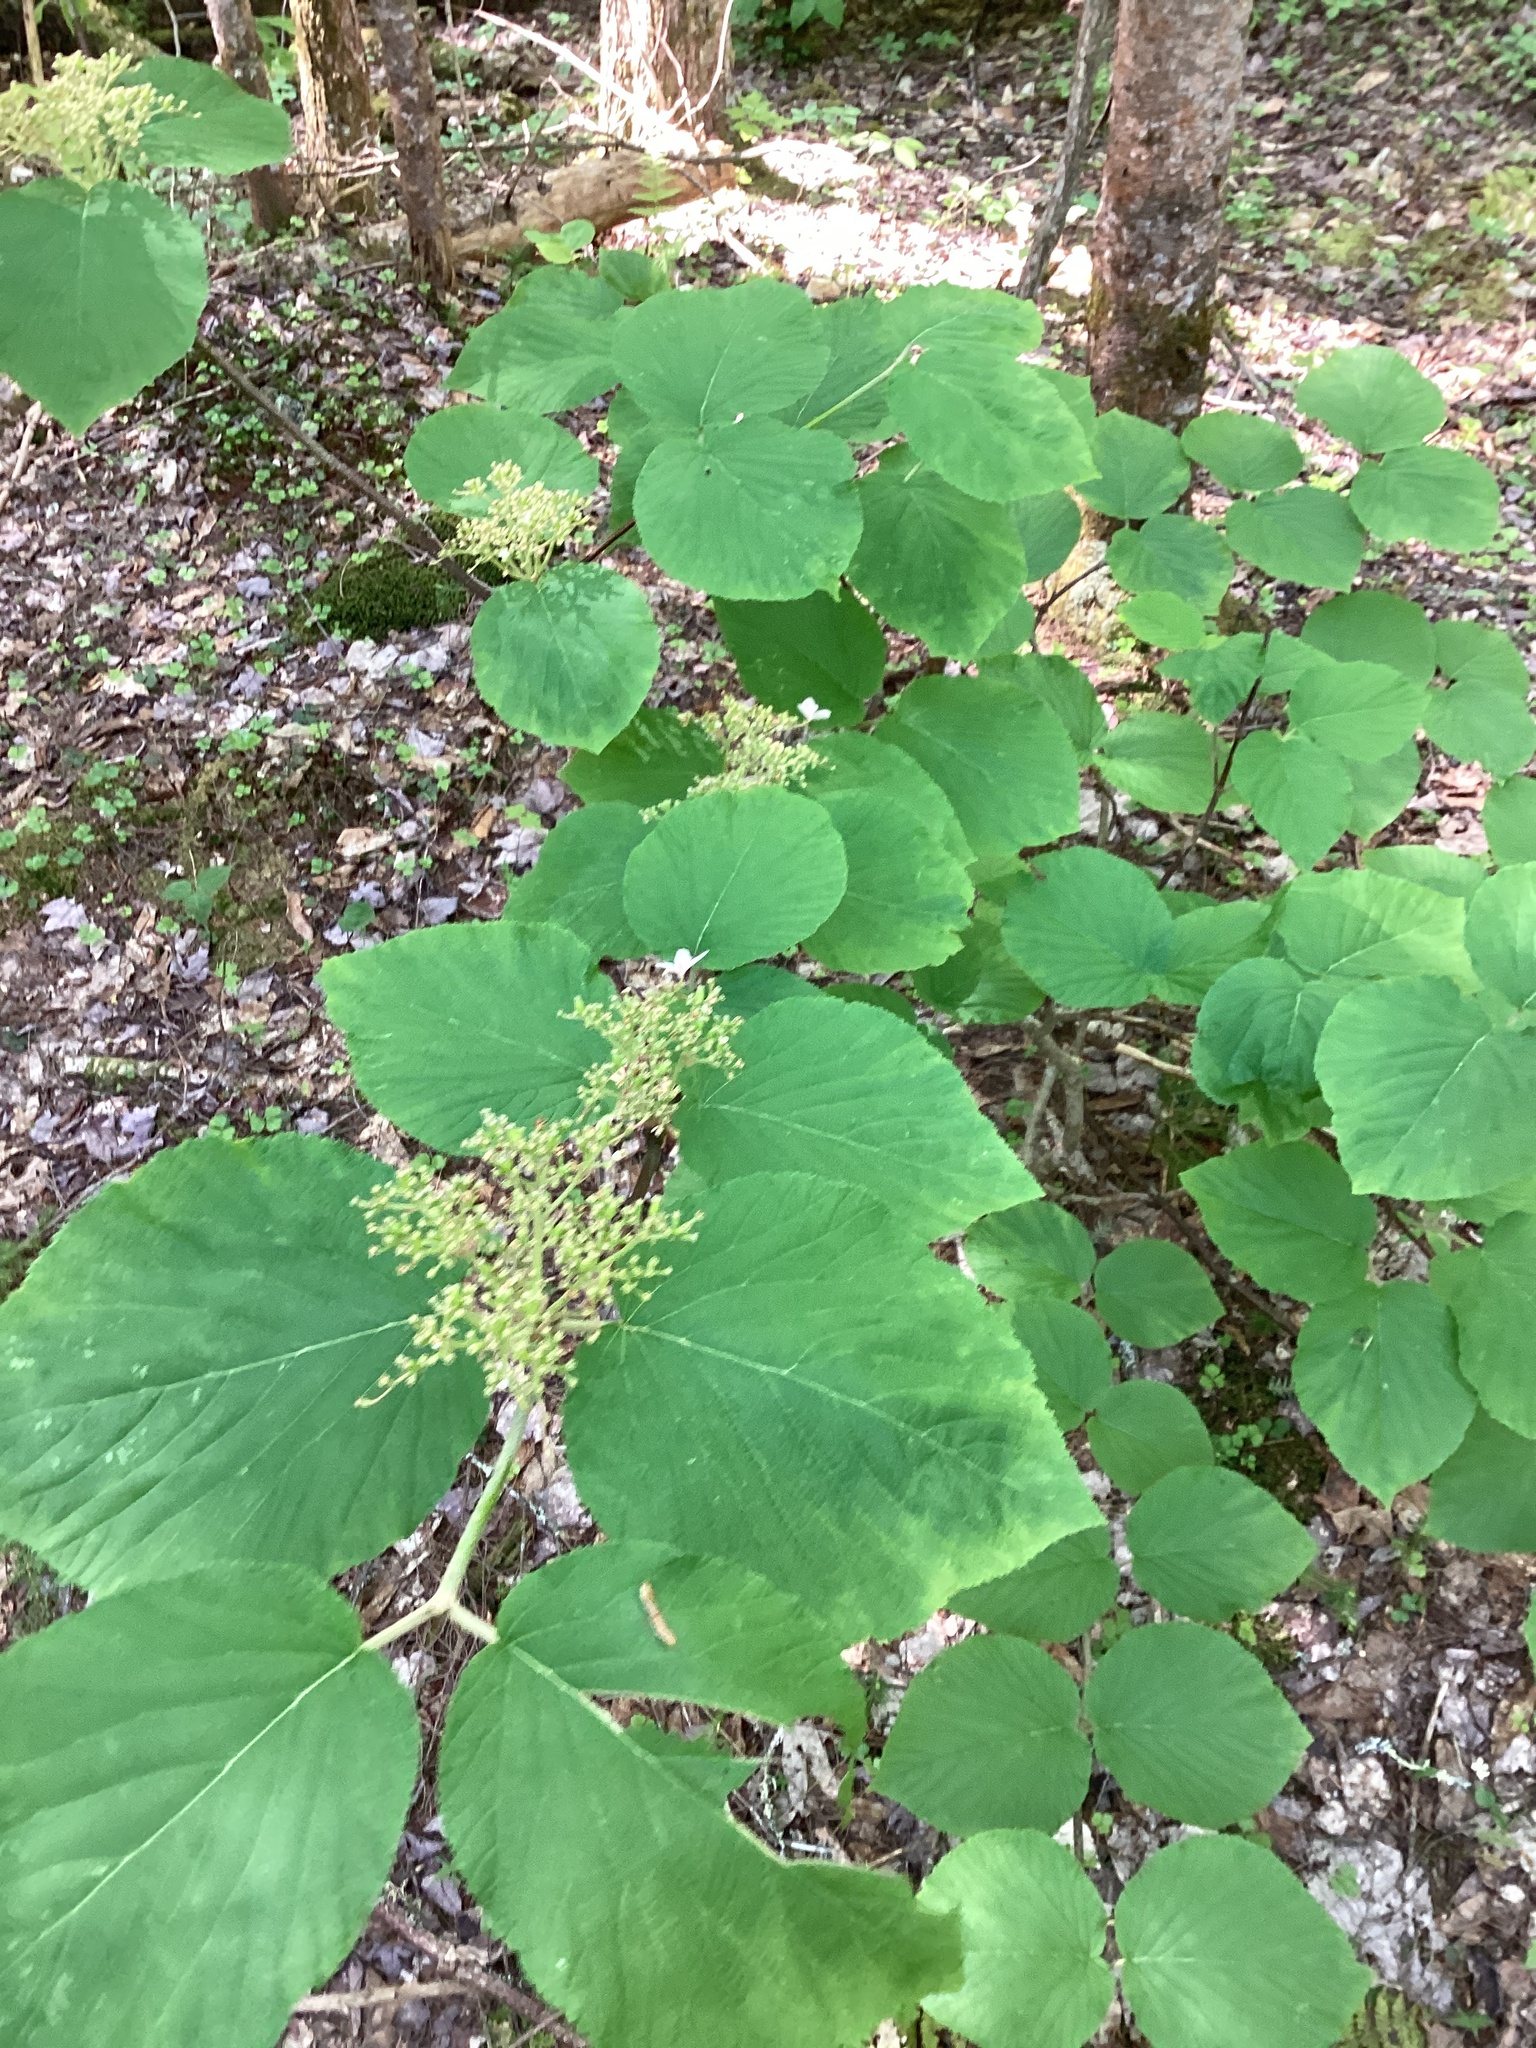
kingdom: Plantae
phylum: Tracheophyta
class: Magnoliopsida
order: Dipsacales
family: Viburnaceae
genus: Viburnum
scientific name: Viburnum lantanoides
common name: Hobblebush
